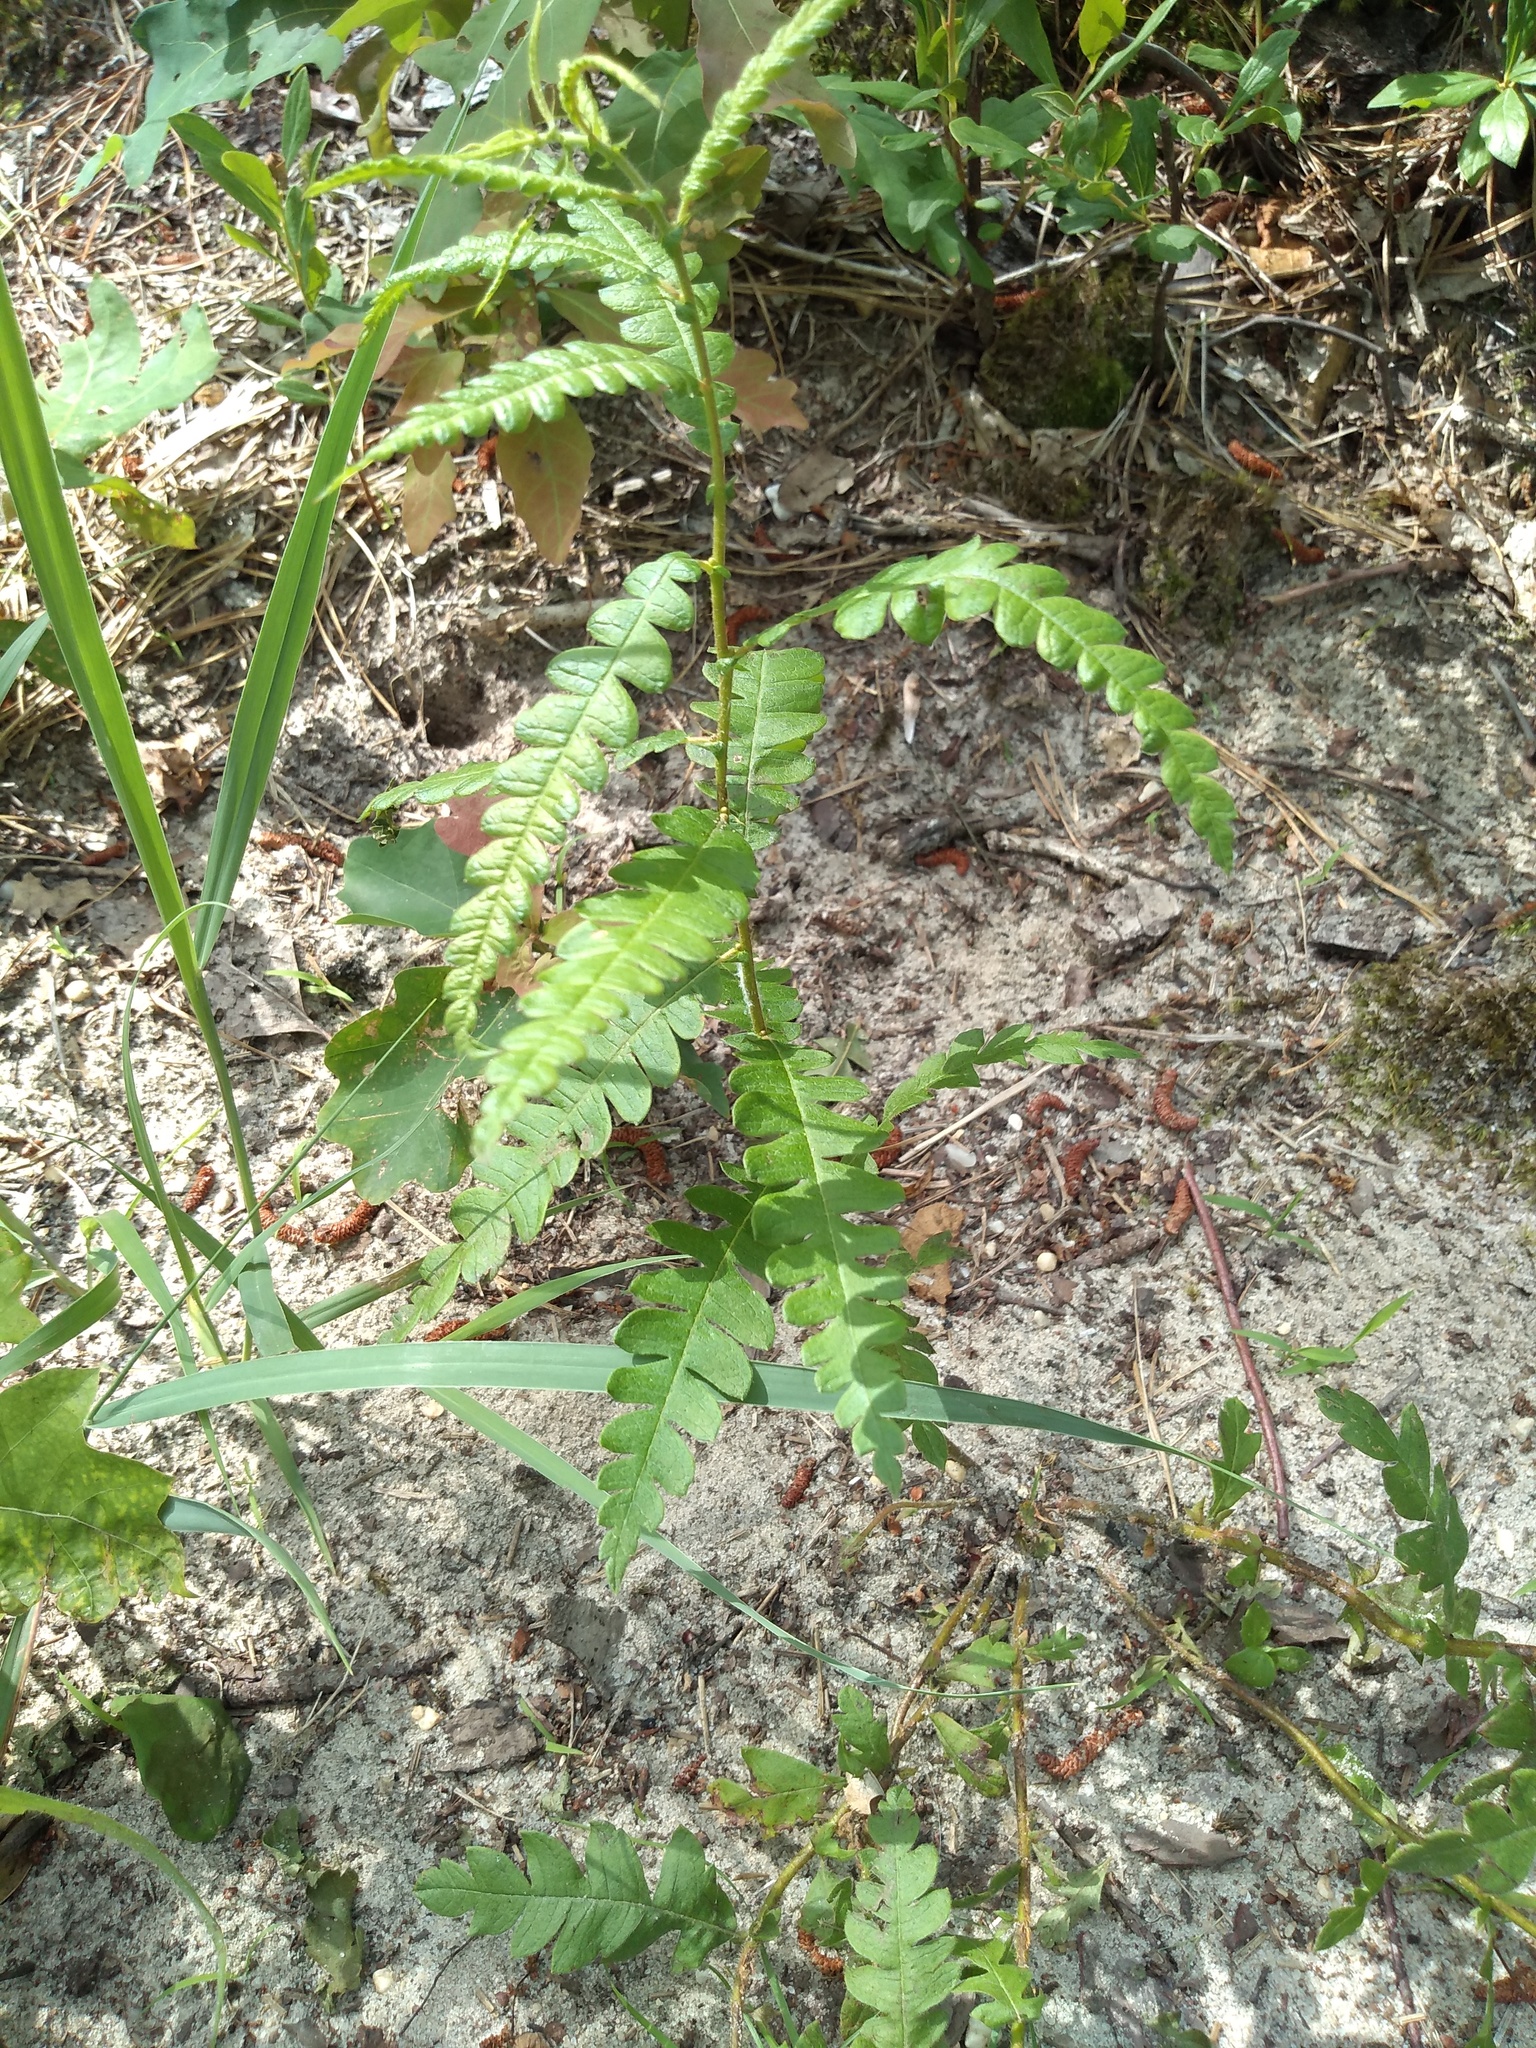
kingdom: Plantae
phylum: Tracheophyta
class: Magnoliopsida
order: Fagales
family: Myricaceae
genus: Comptonia
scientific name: Comptonia peregrina
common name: Sweet-fern
